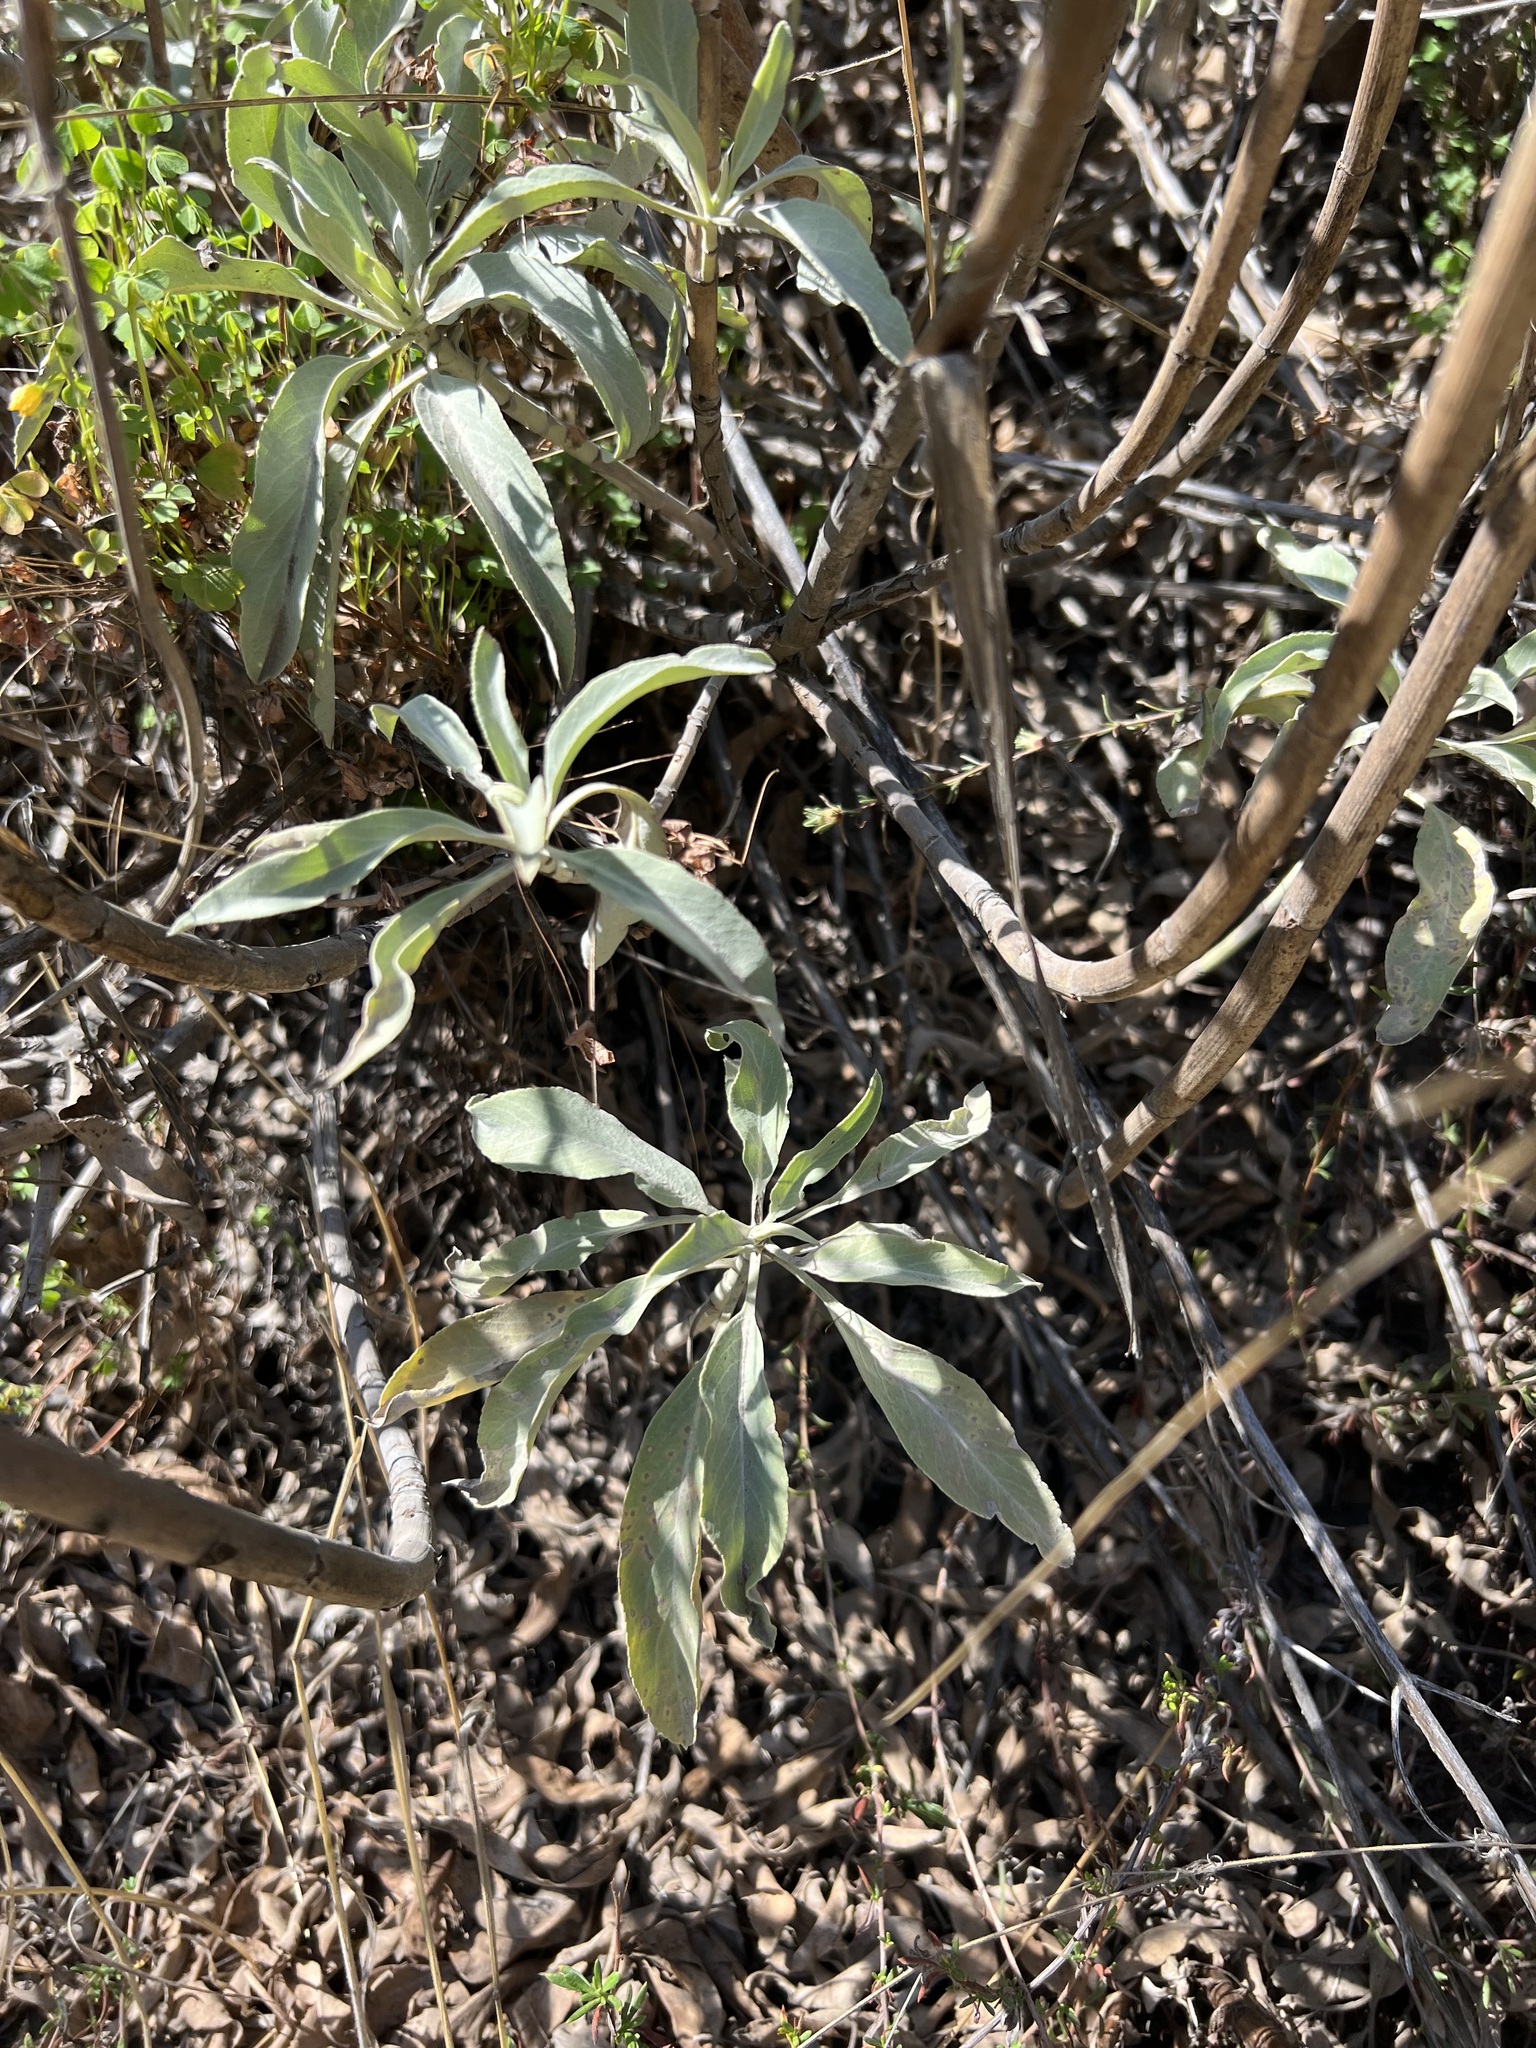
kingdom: Plantae
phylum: Tracheophyta
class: Magnoliopsida
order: Lamiales
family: Lamiaceae
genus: Salvia
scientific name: Salvia apiana
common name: White sage
